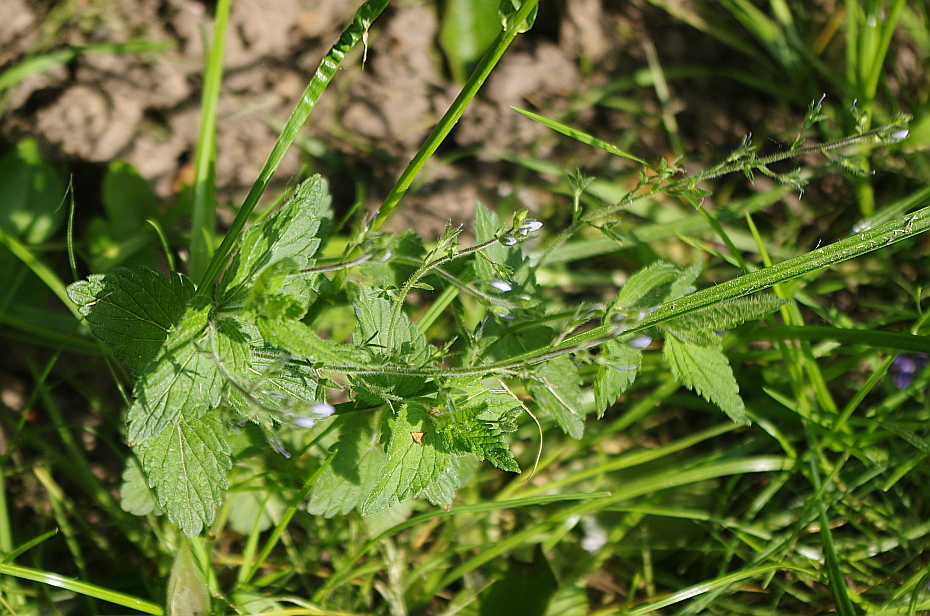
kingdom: Plantae
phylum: Tracheophyta
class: Magnoliopsida
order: Lamiales
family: Plantaginaceae
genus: Veronica
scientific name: Veronica chamaedrys
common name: Germander speedwell
